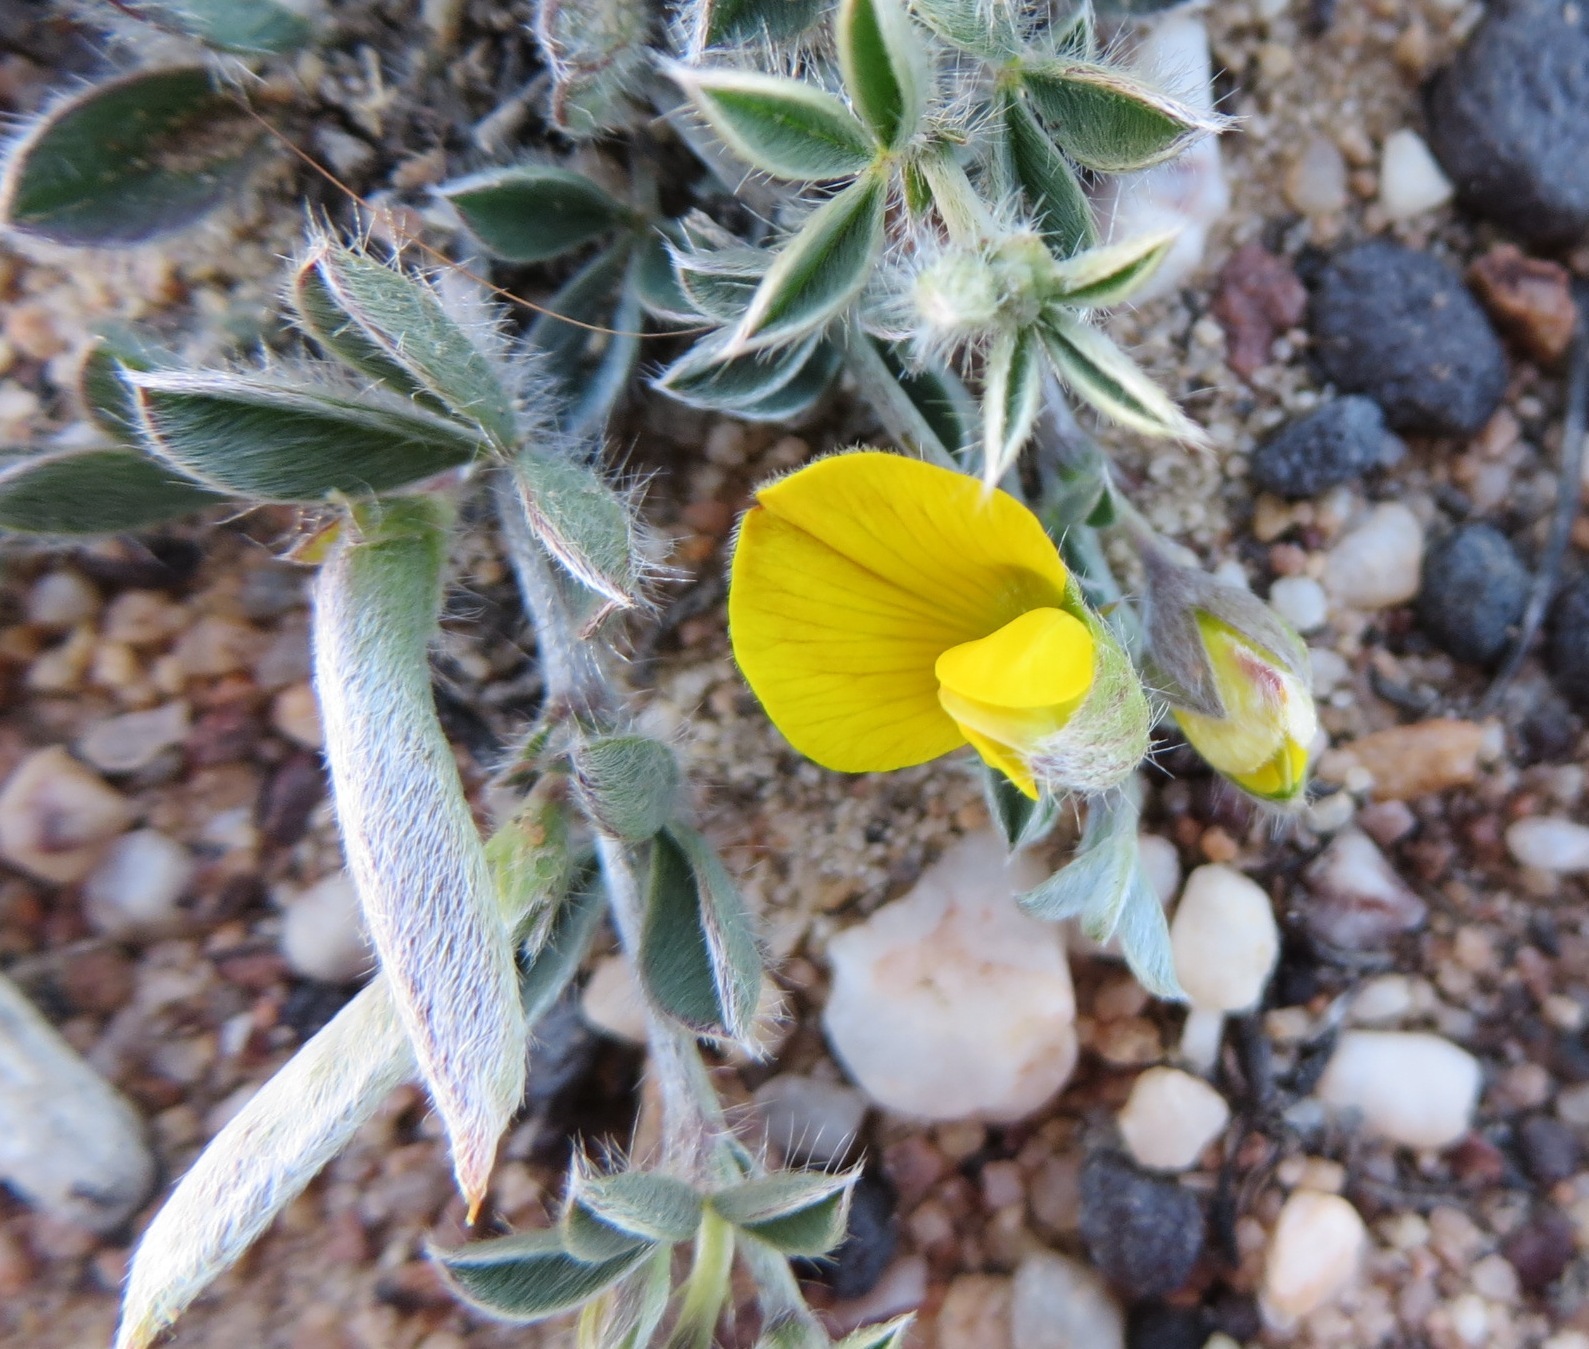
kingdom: Plantae
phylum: Tracheophyta
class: Magnoliopsida
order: Fabales
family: Fabaceae
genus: Argyrolobium
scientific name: Argyrolobium argenteum
